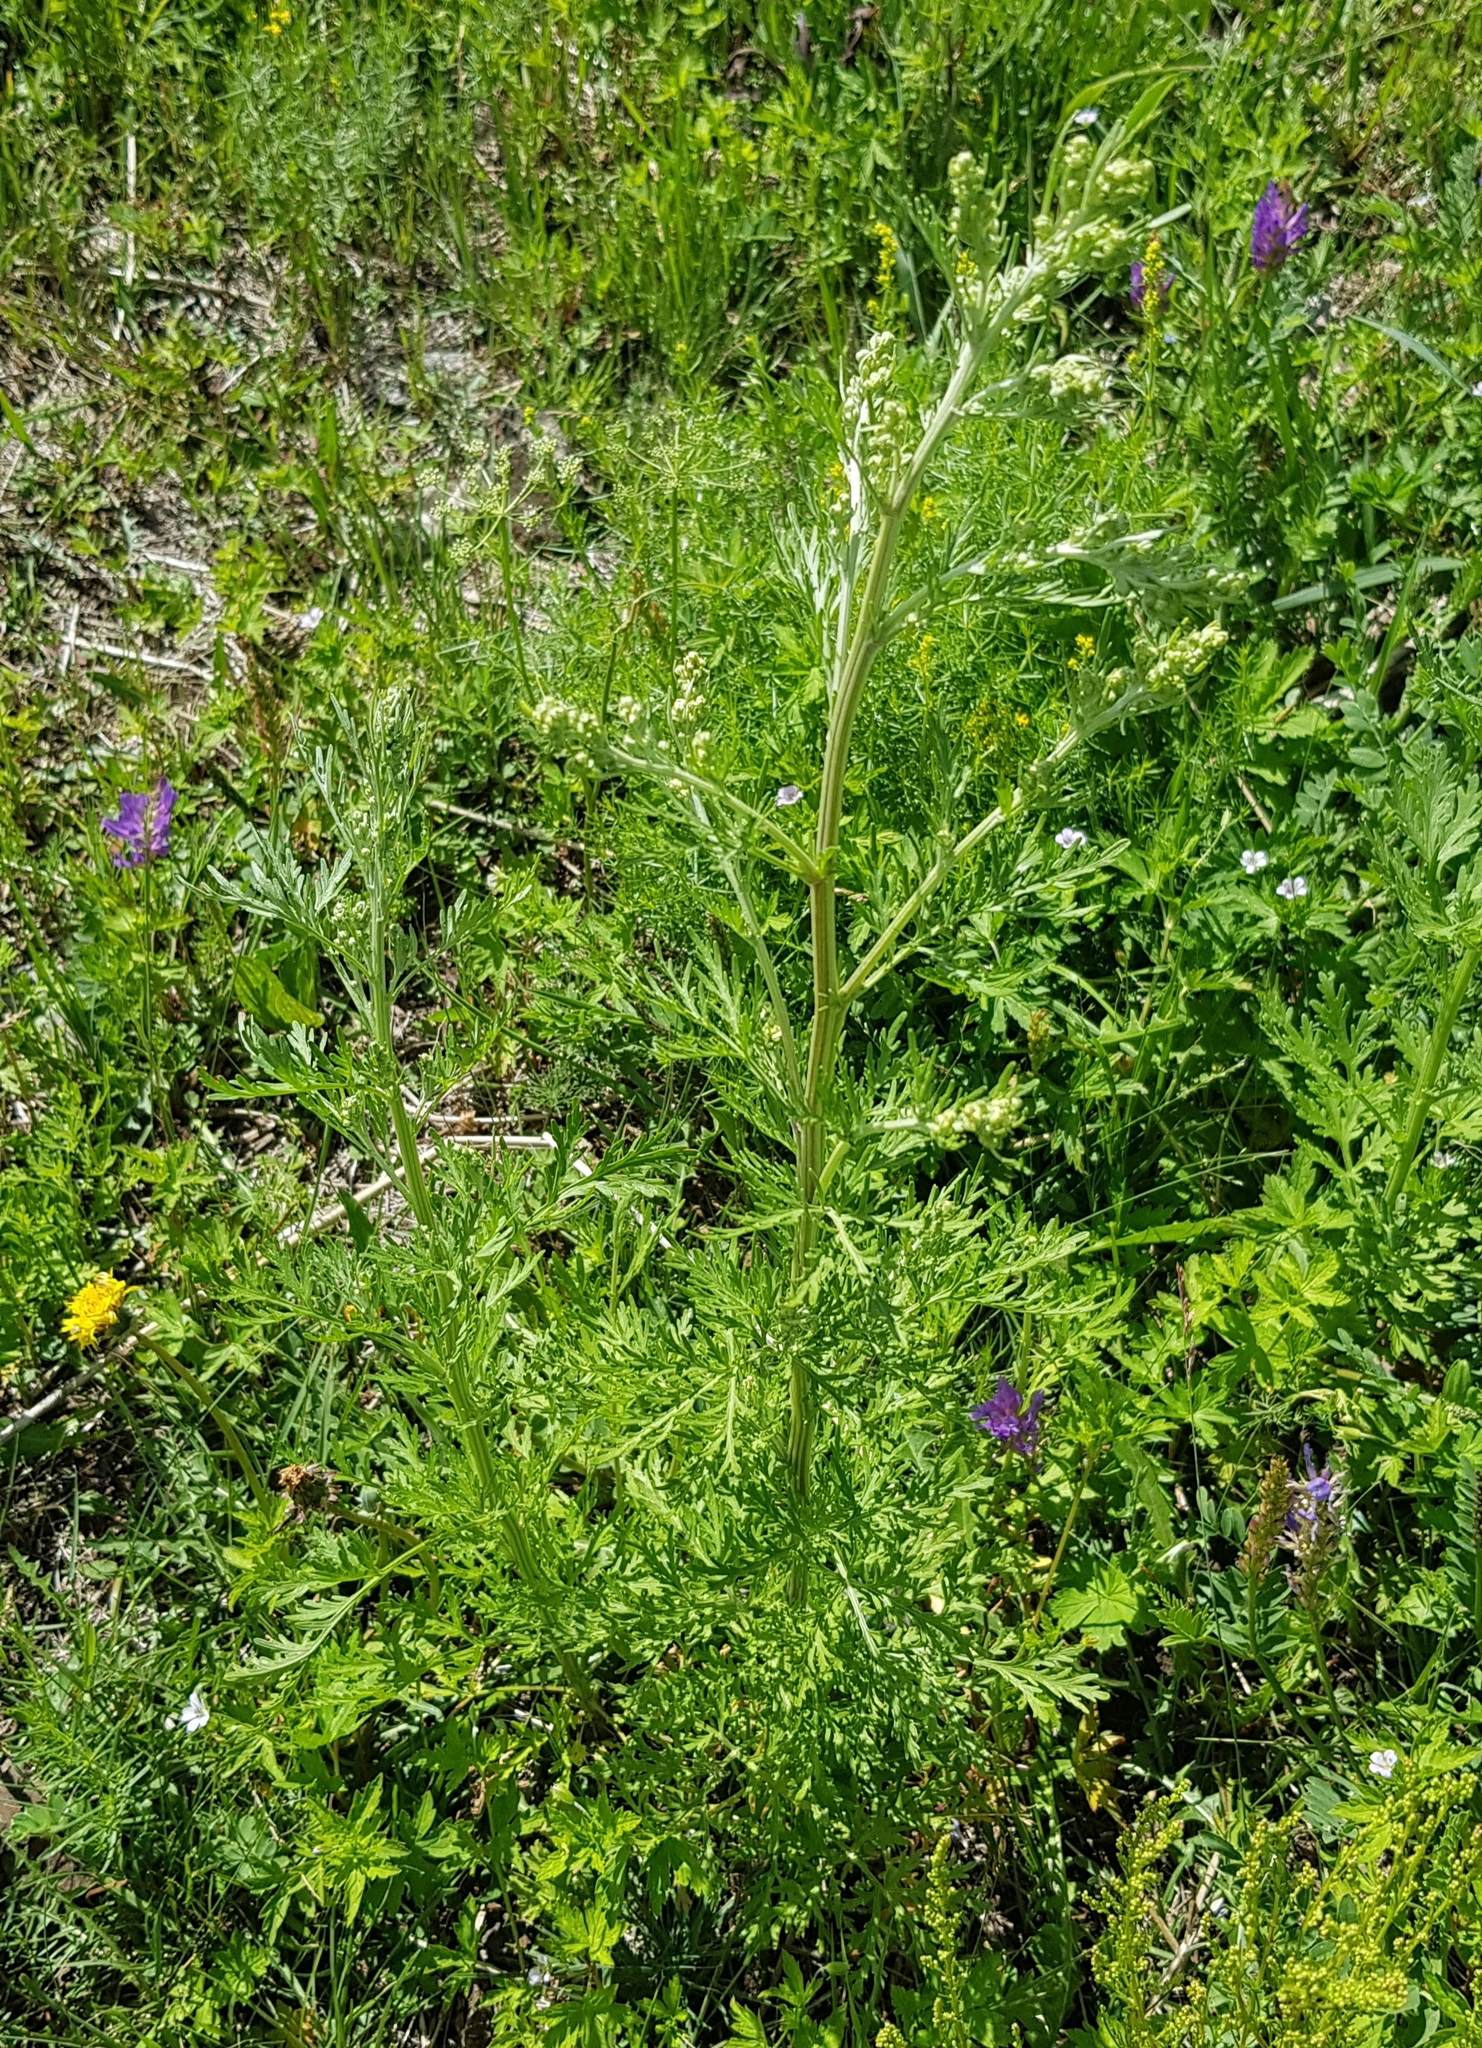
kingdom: Plantae
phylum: Tracheophyta
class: Magnoliopsida
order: Asterales
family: Asteraceae
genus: Artemisia
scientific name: Artemisia sieversiana
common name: Sieversian wormwood
